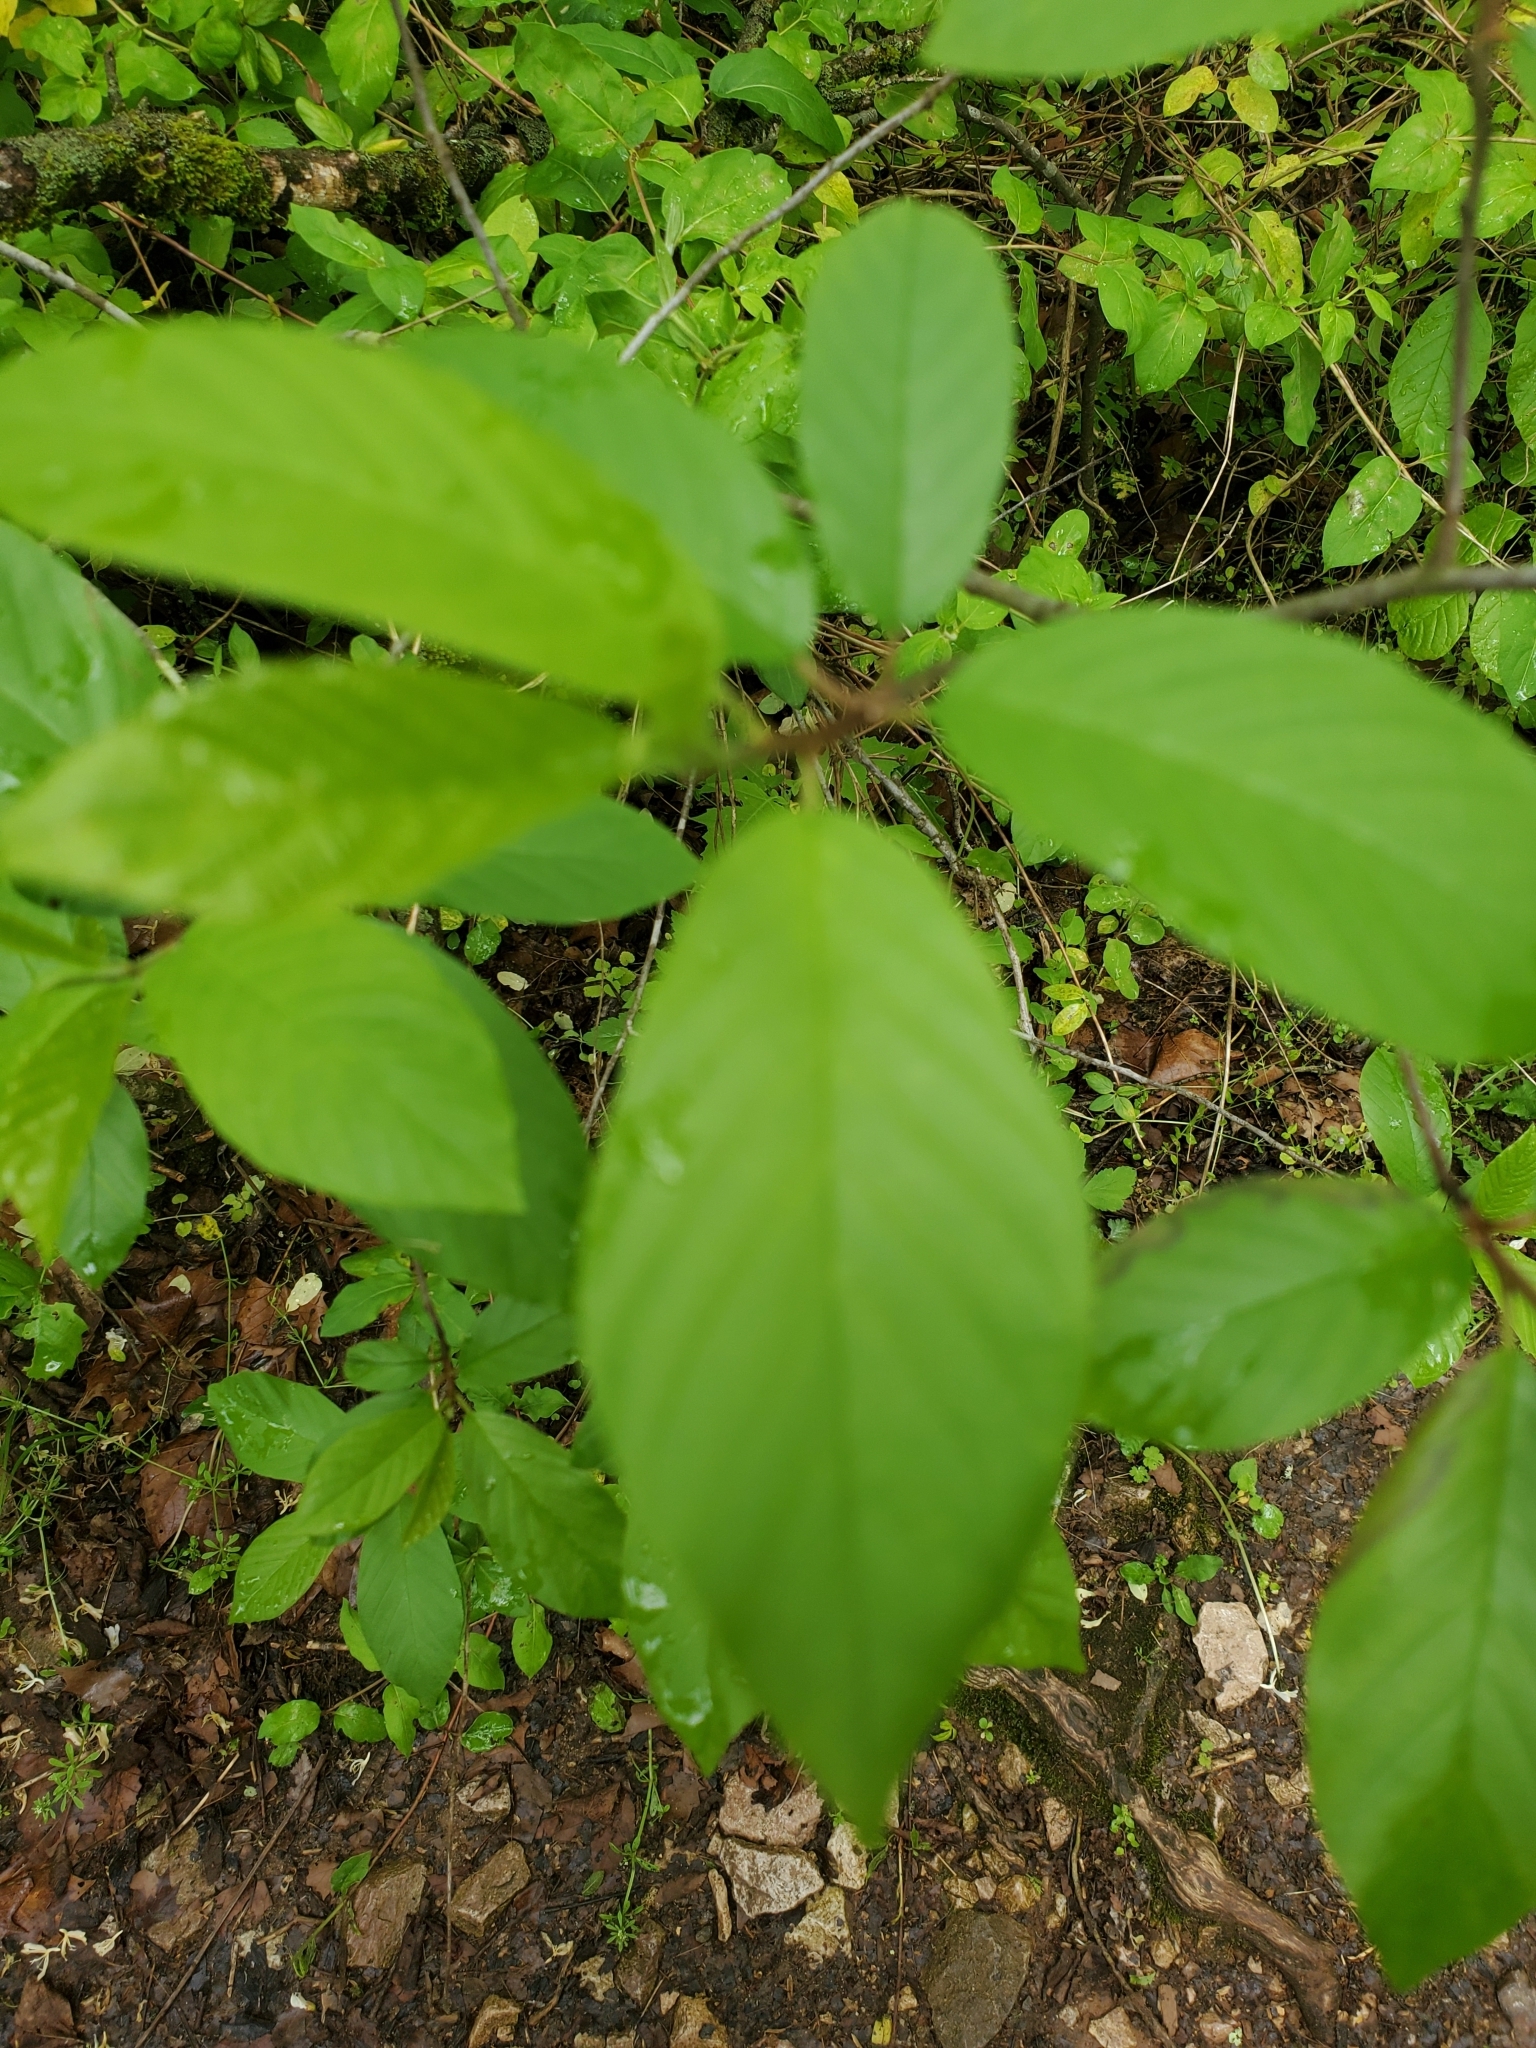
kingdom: Plantae
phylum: Tracheophyta
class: Magnoliopsida
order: Rosales
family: Rhamnaceae
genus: Frangula
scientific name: Frangula caroliniana
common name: Carolina buckthorn
